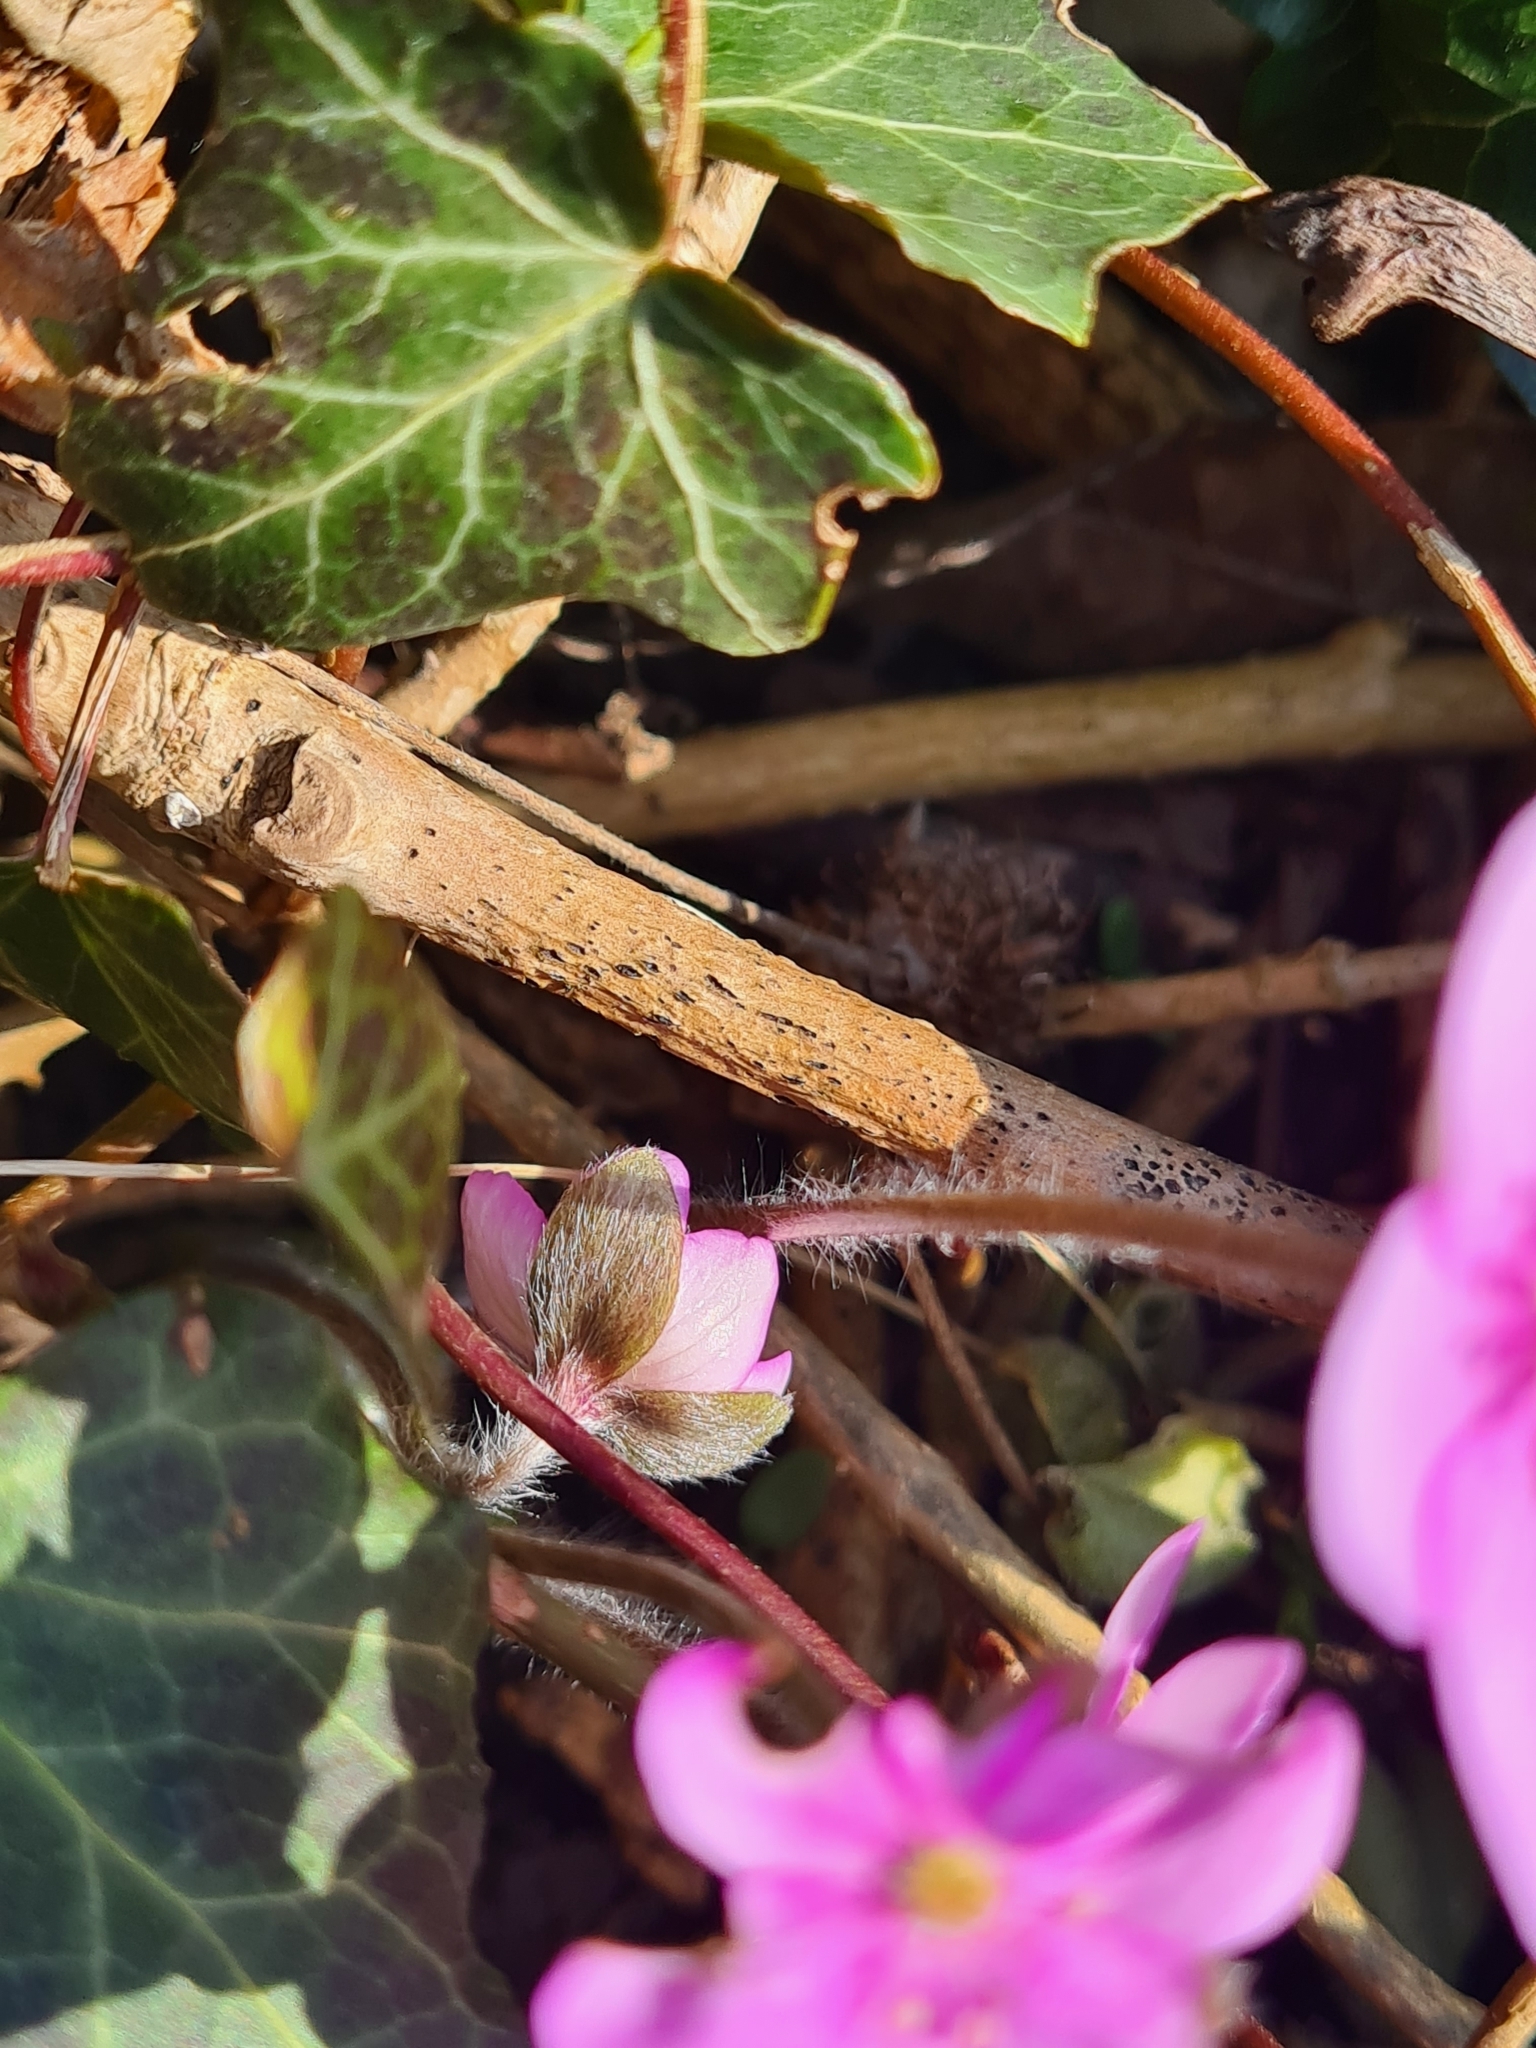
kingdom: Plantae
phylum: Tracheophyta
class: Magnoliopsida
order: Ranunculales
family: Ranunculaceae
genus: Hepatica
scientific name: Hepatica nobilis
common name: Liverleaf
